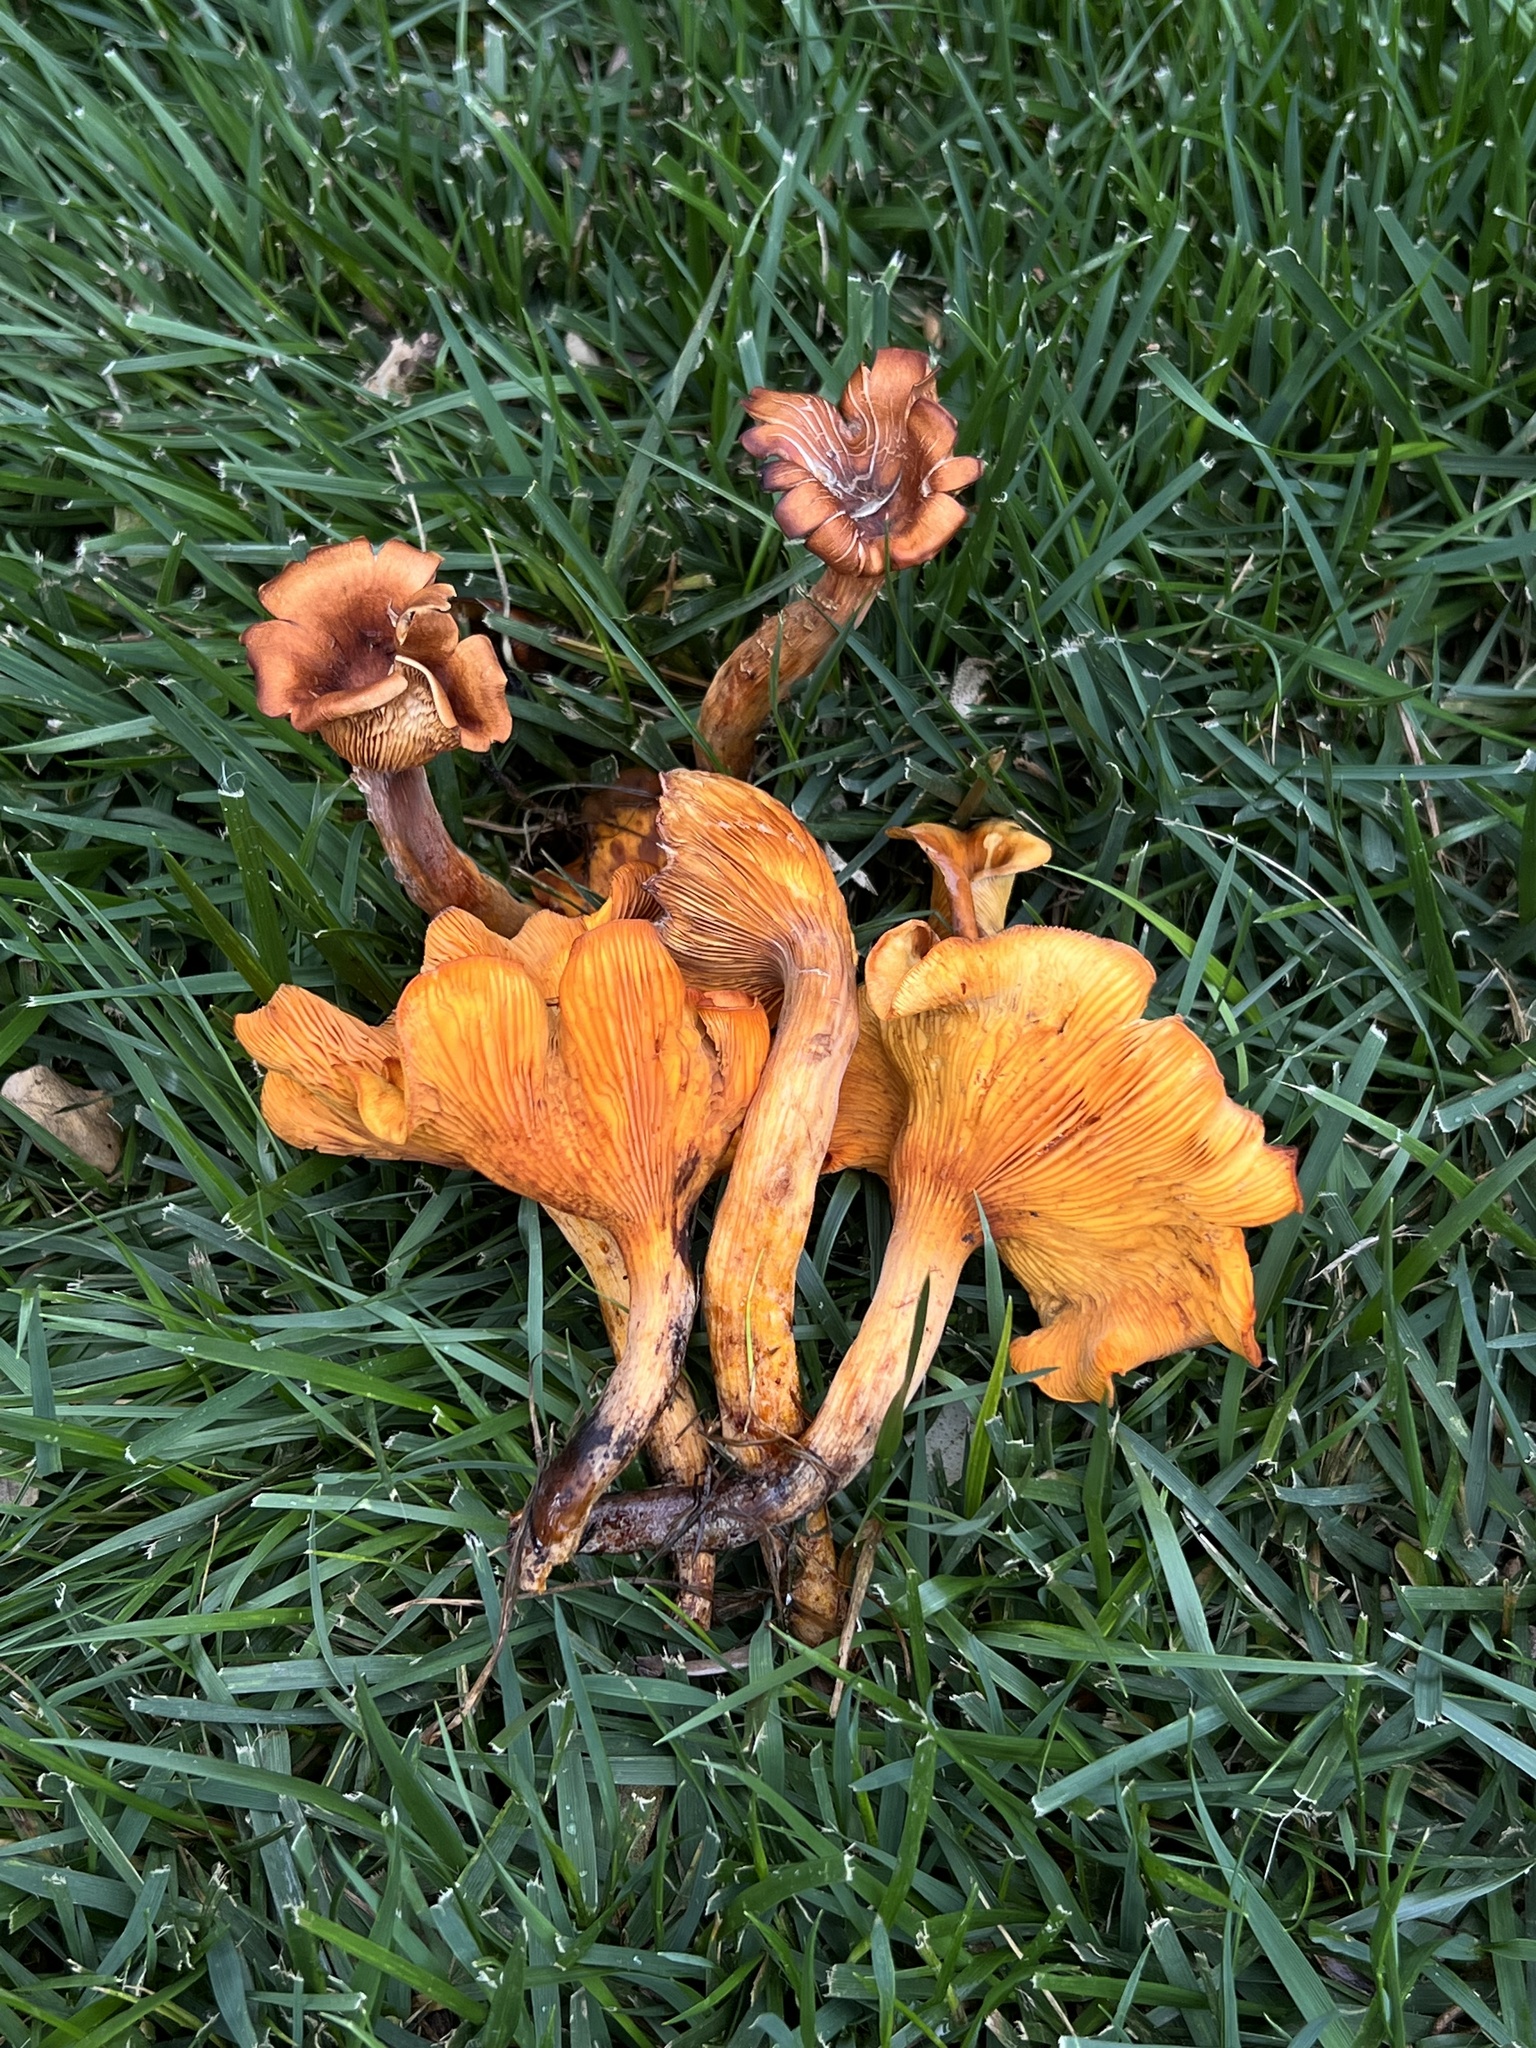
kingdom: Fungi
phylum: Basidiomycota
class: Agaricomycetes
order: Agaricales
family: Omphalotaceae
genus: Omphalotus
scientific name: Omphalotus illudens
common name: Jack o lantern
